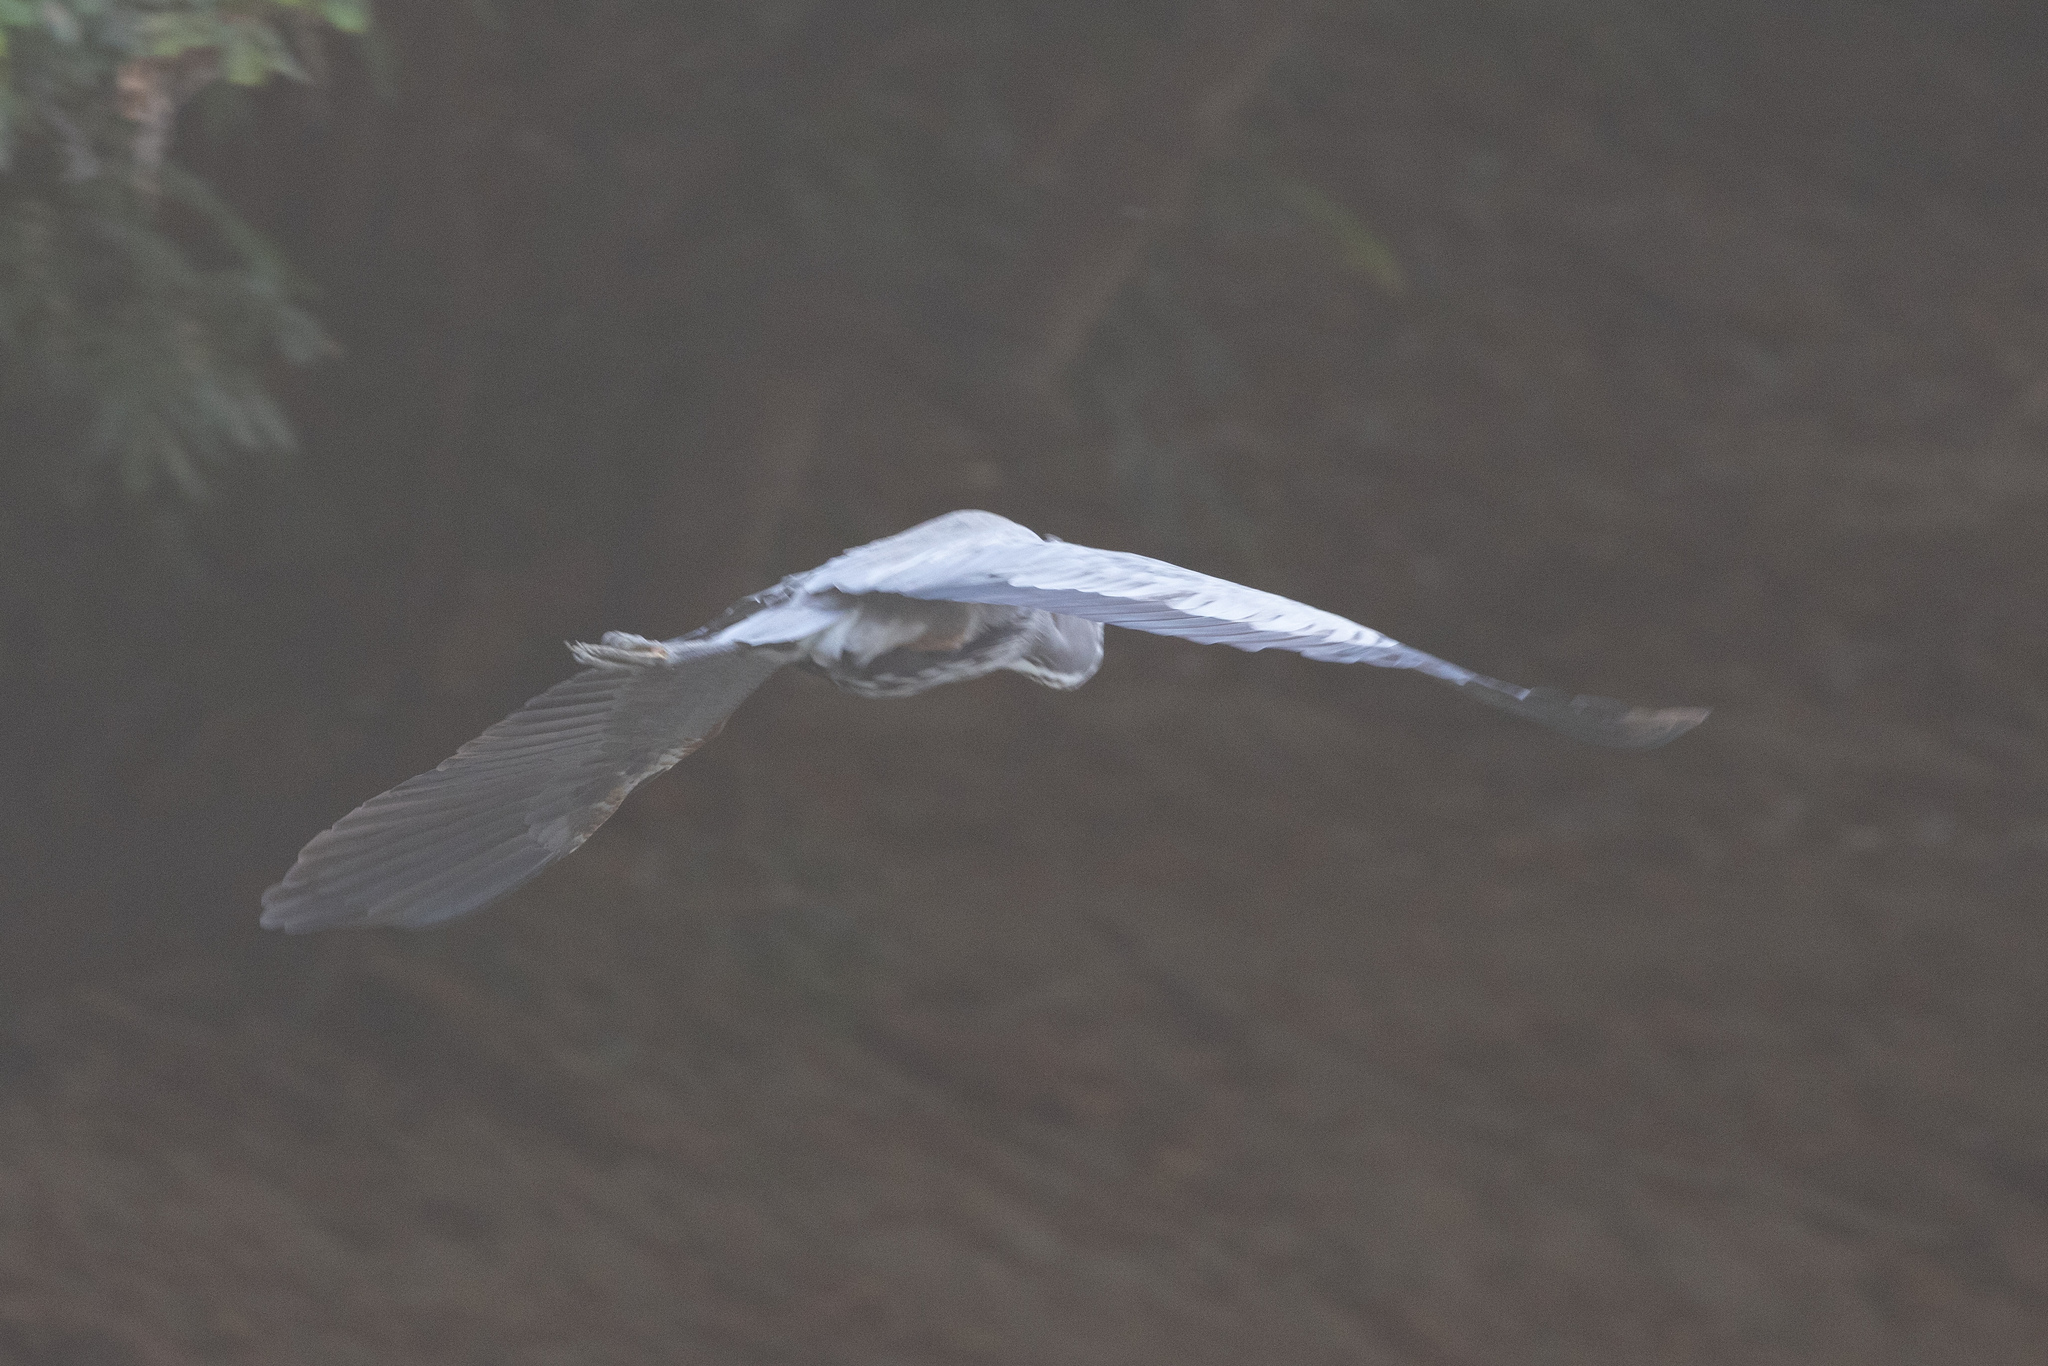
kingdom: Animalia
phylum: Chordata
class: Aves
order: Pelecaniformes
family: Ardeidae
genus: Ardea
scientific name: Ardea herodias
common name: Great blue heron
